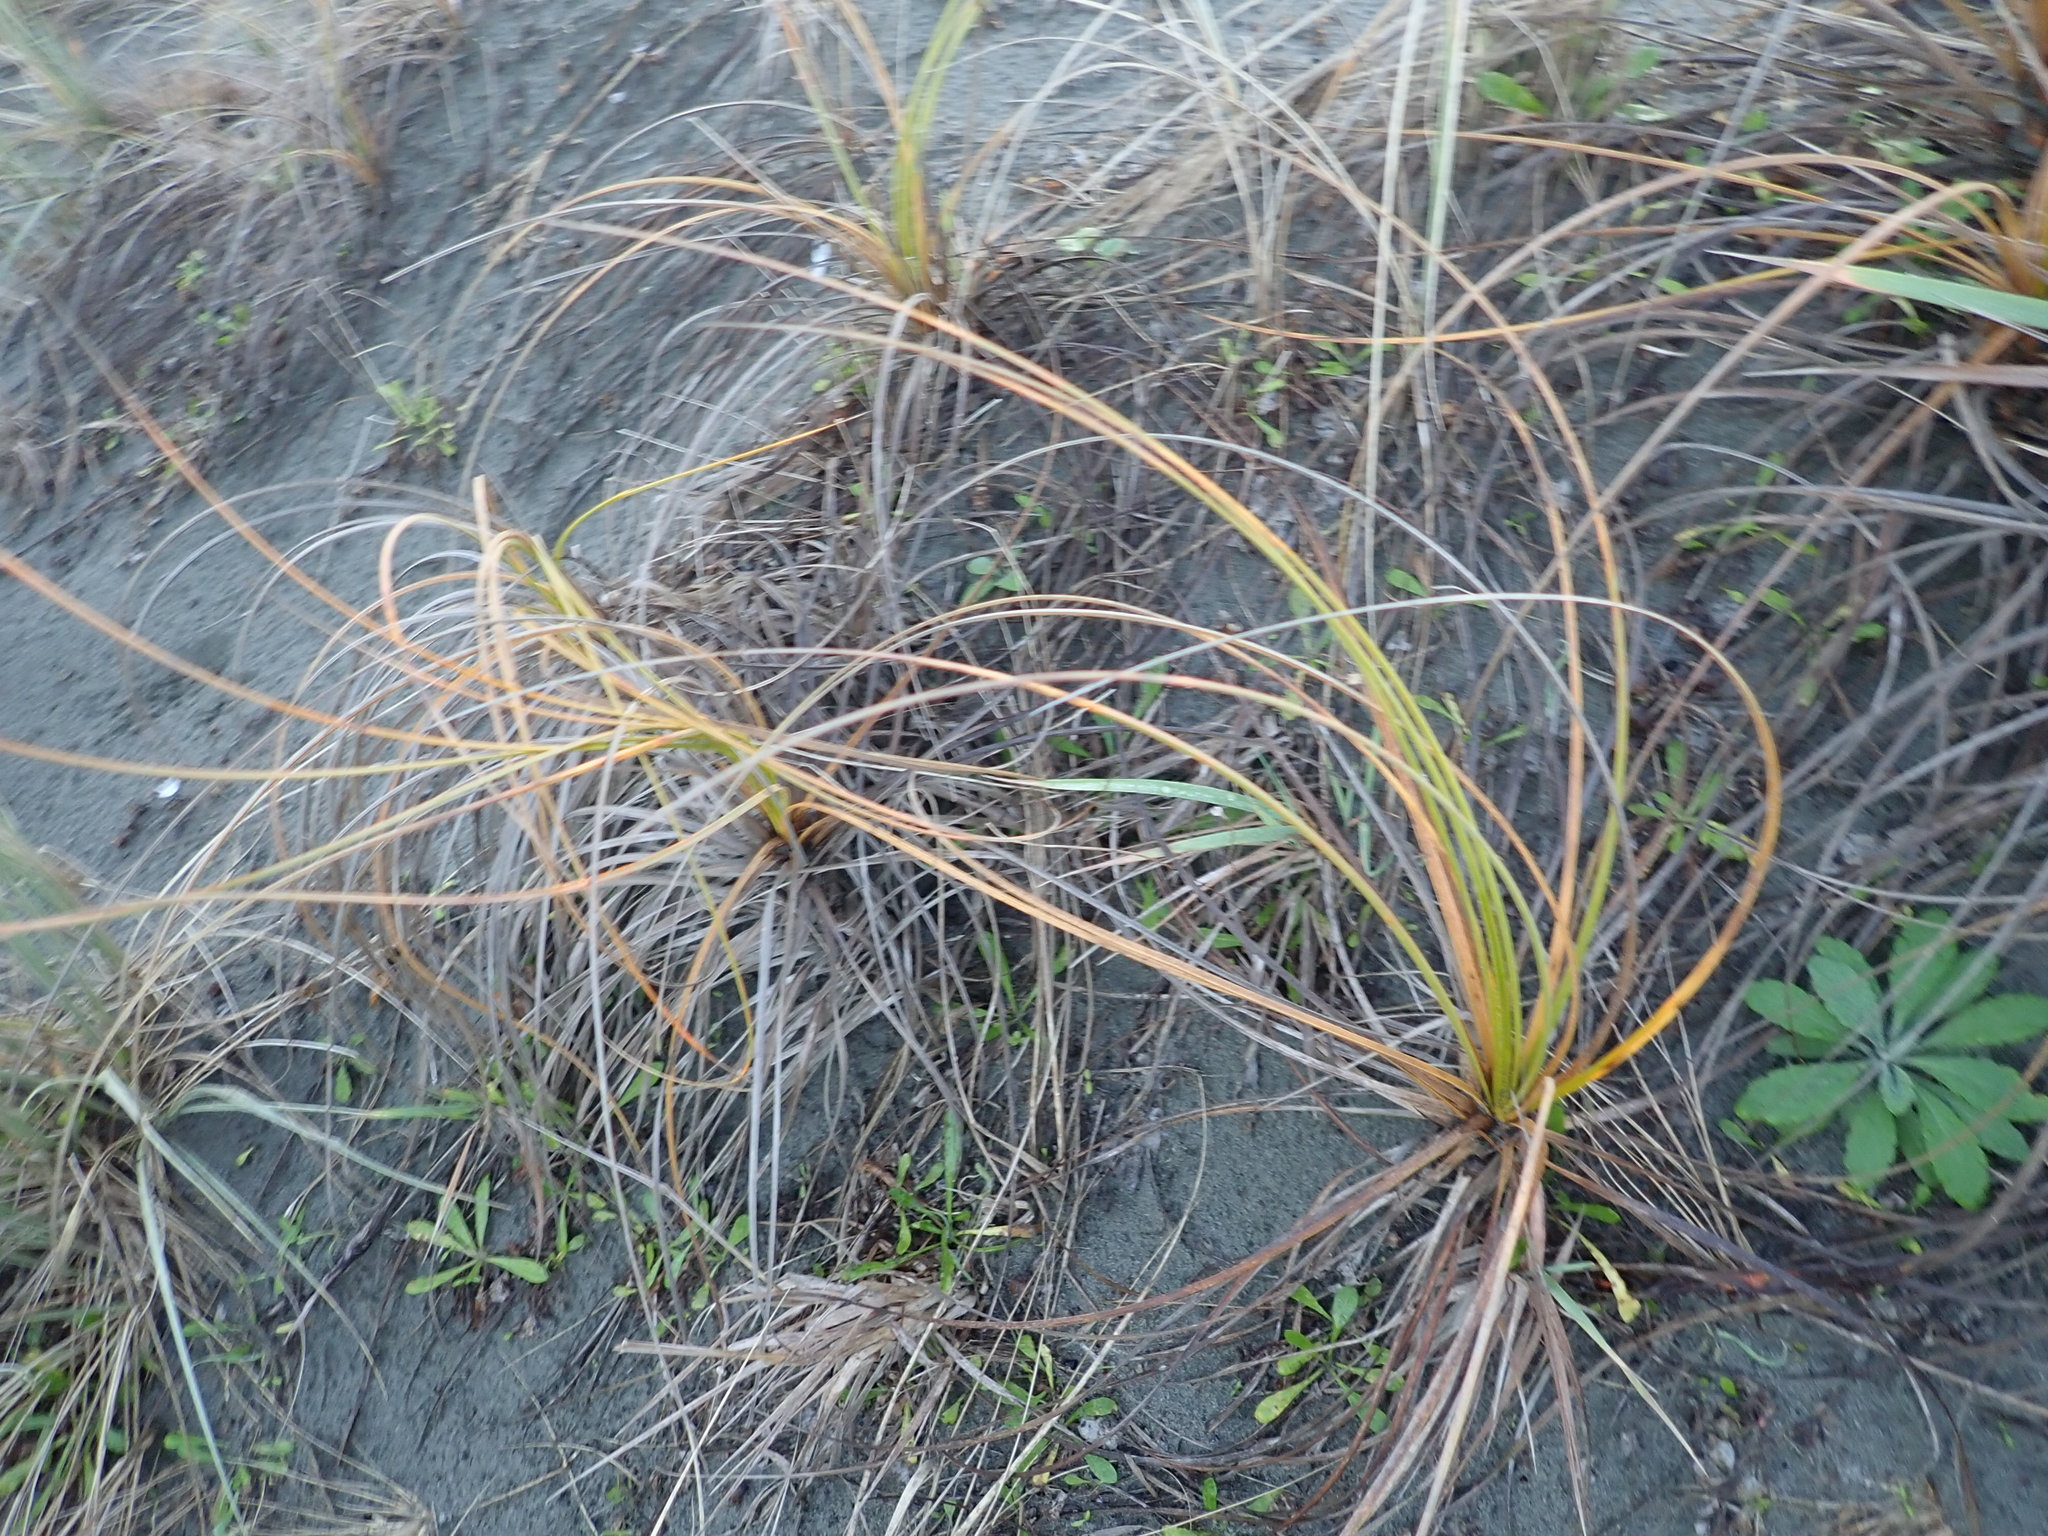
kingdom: Plantae
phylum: Tracheophyta
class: Liliopsida
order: Poales
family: Cyperaceae
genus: Ficinia
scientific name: Ficinia spiralis
